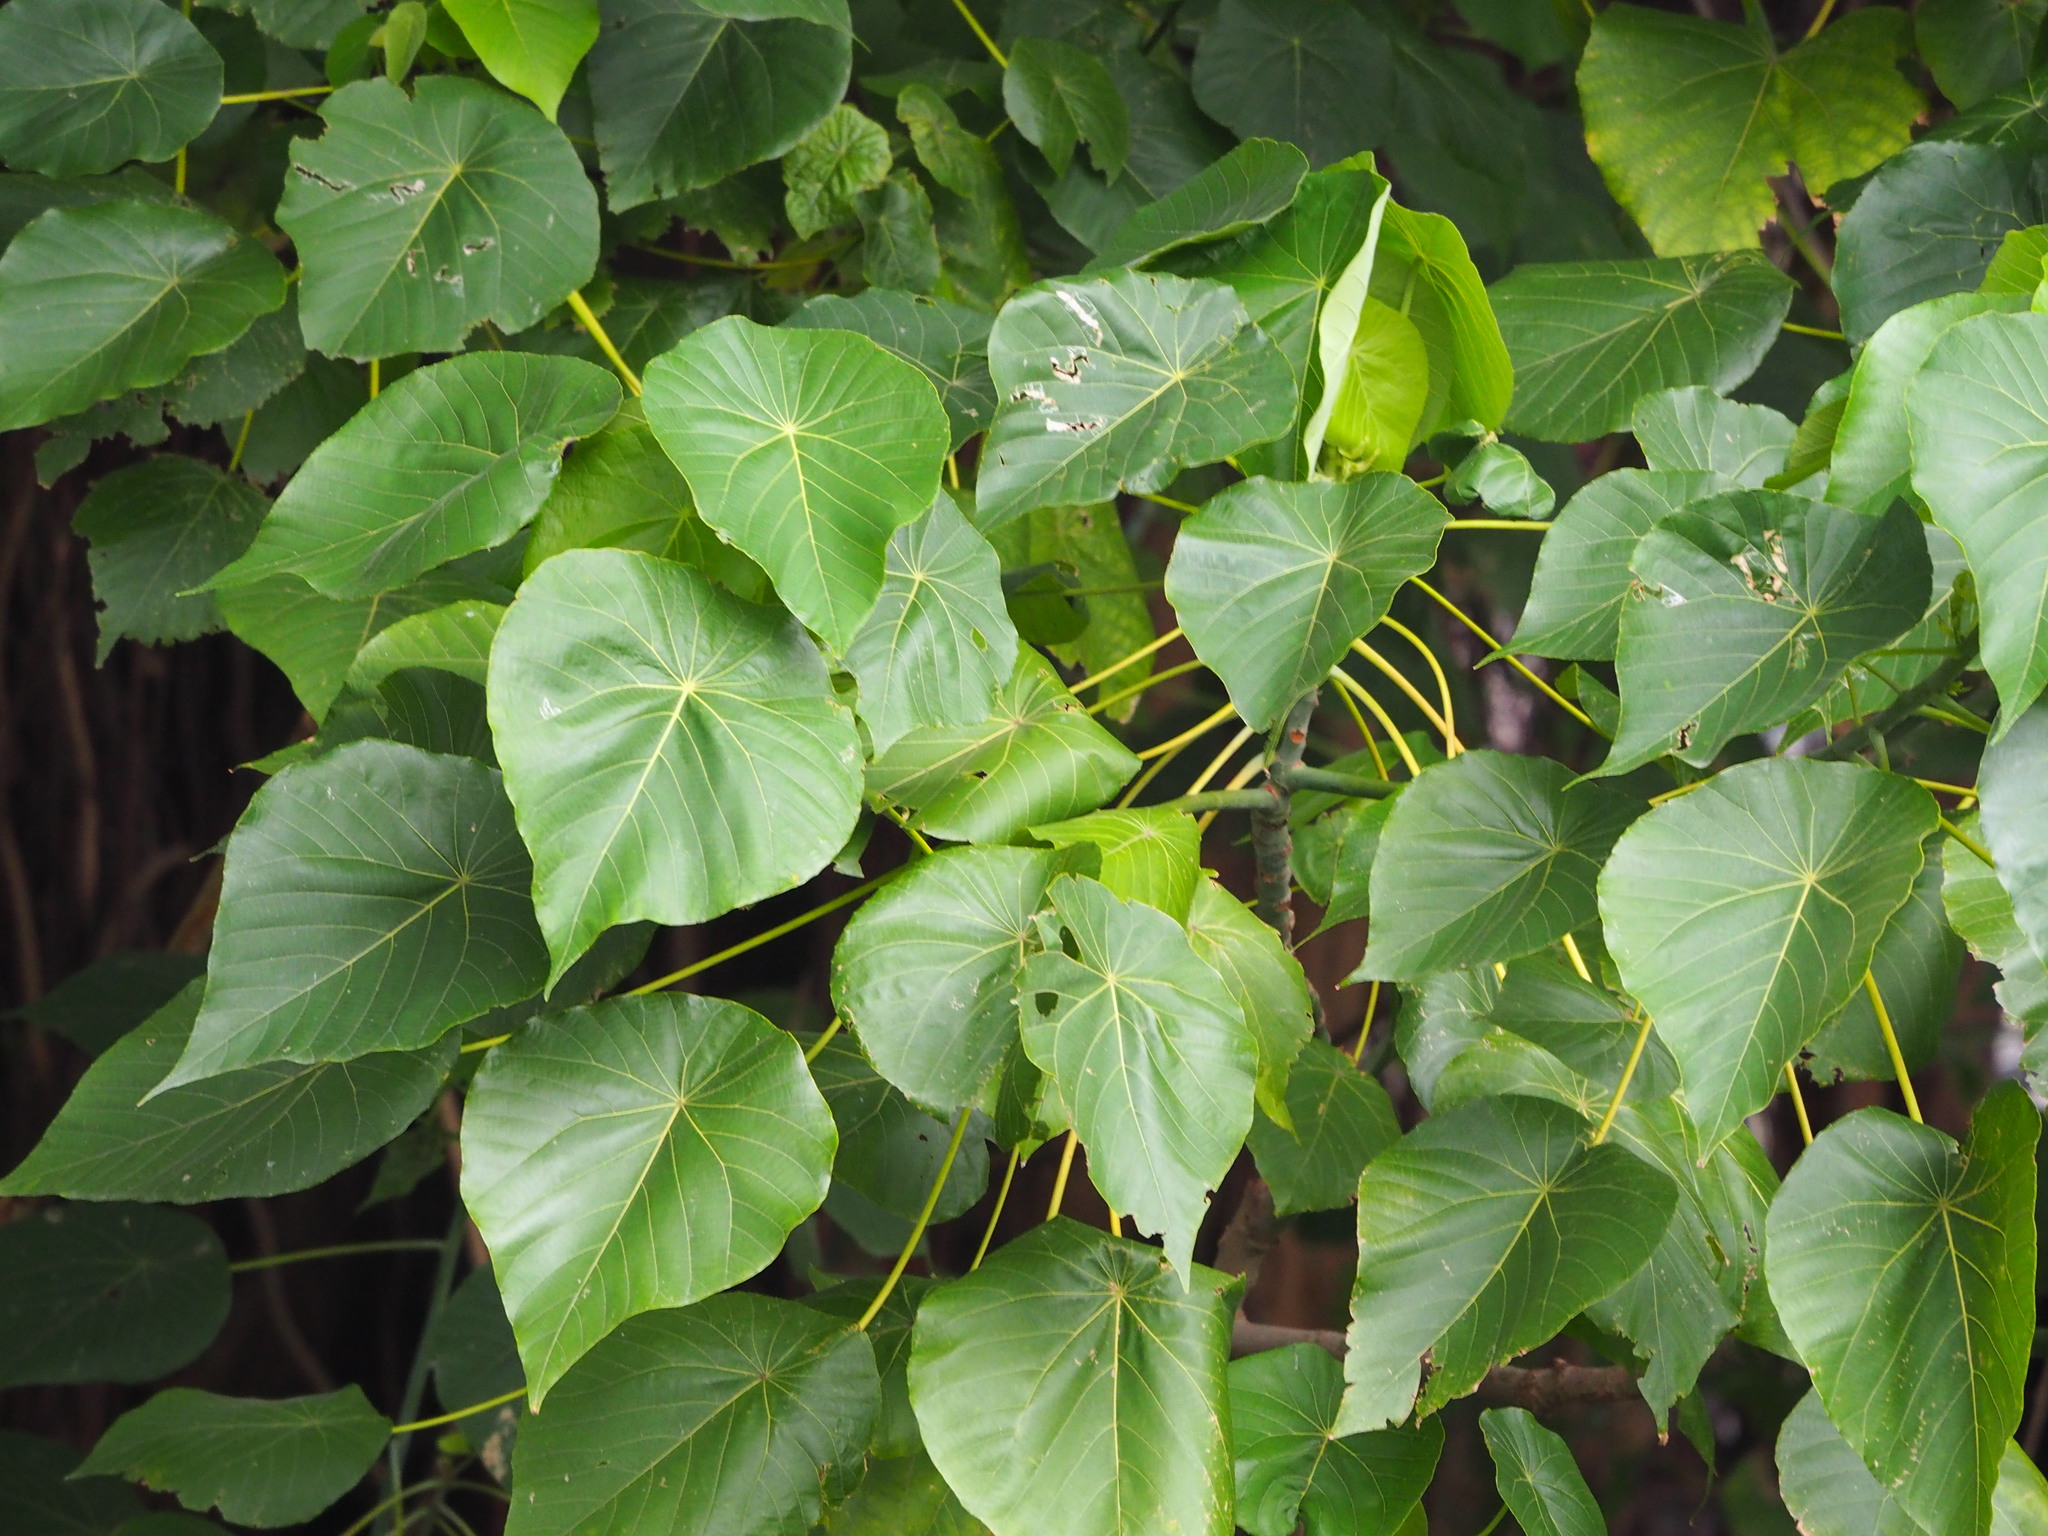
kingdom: Plantae
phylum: Tracheophyta
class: Magnoliopsida
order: Malpighiales
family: Euphorbiaceae
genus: Macaranga
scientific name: Macaranga tanarius
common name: Parasol leaf tree
